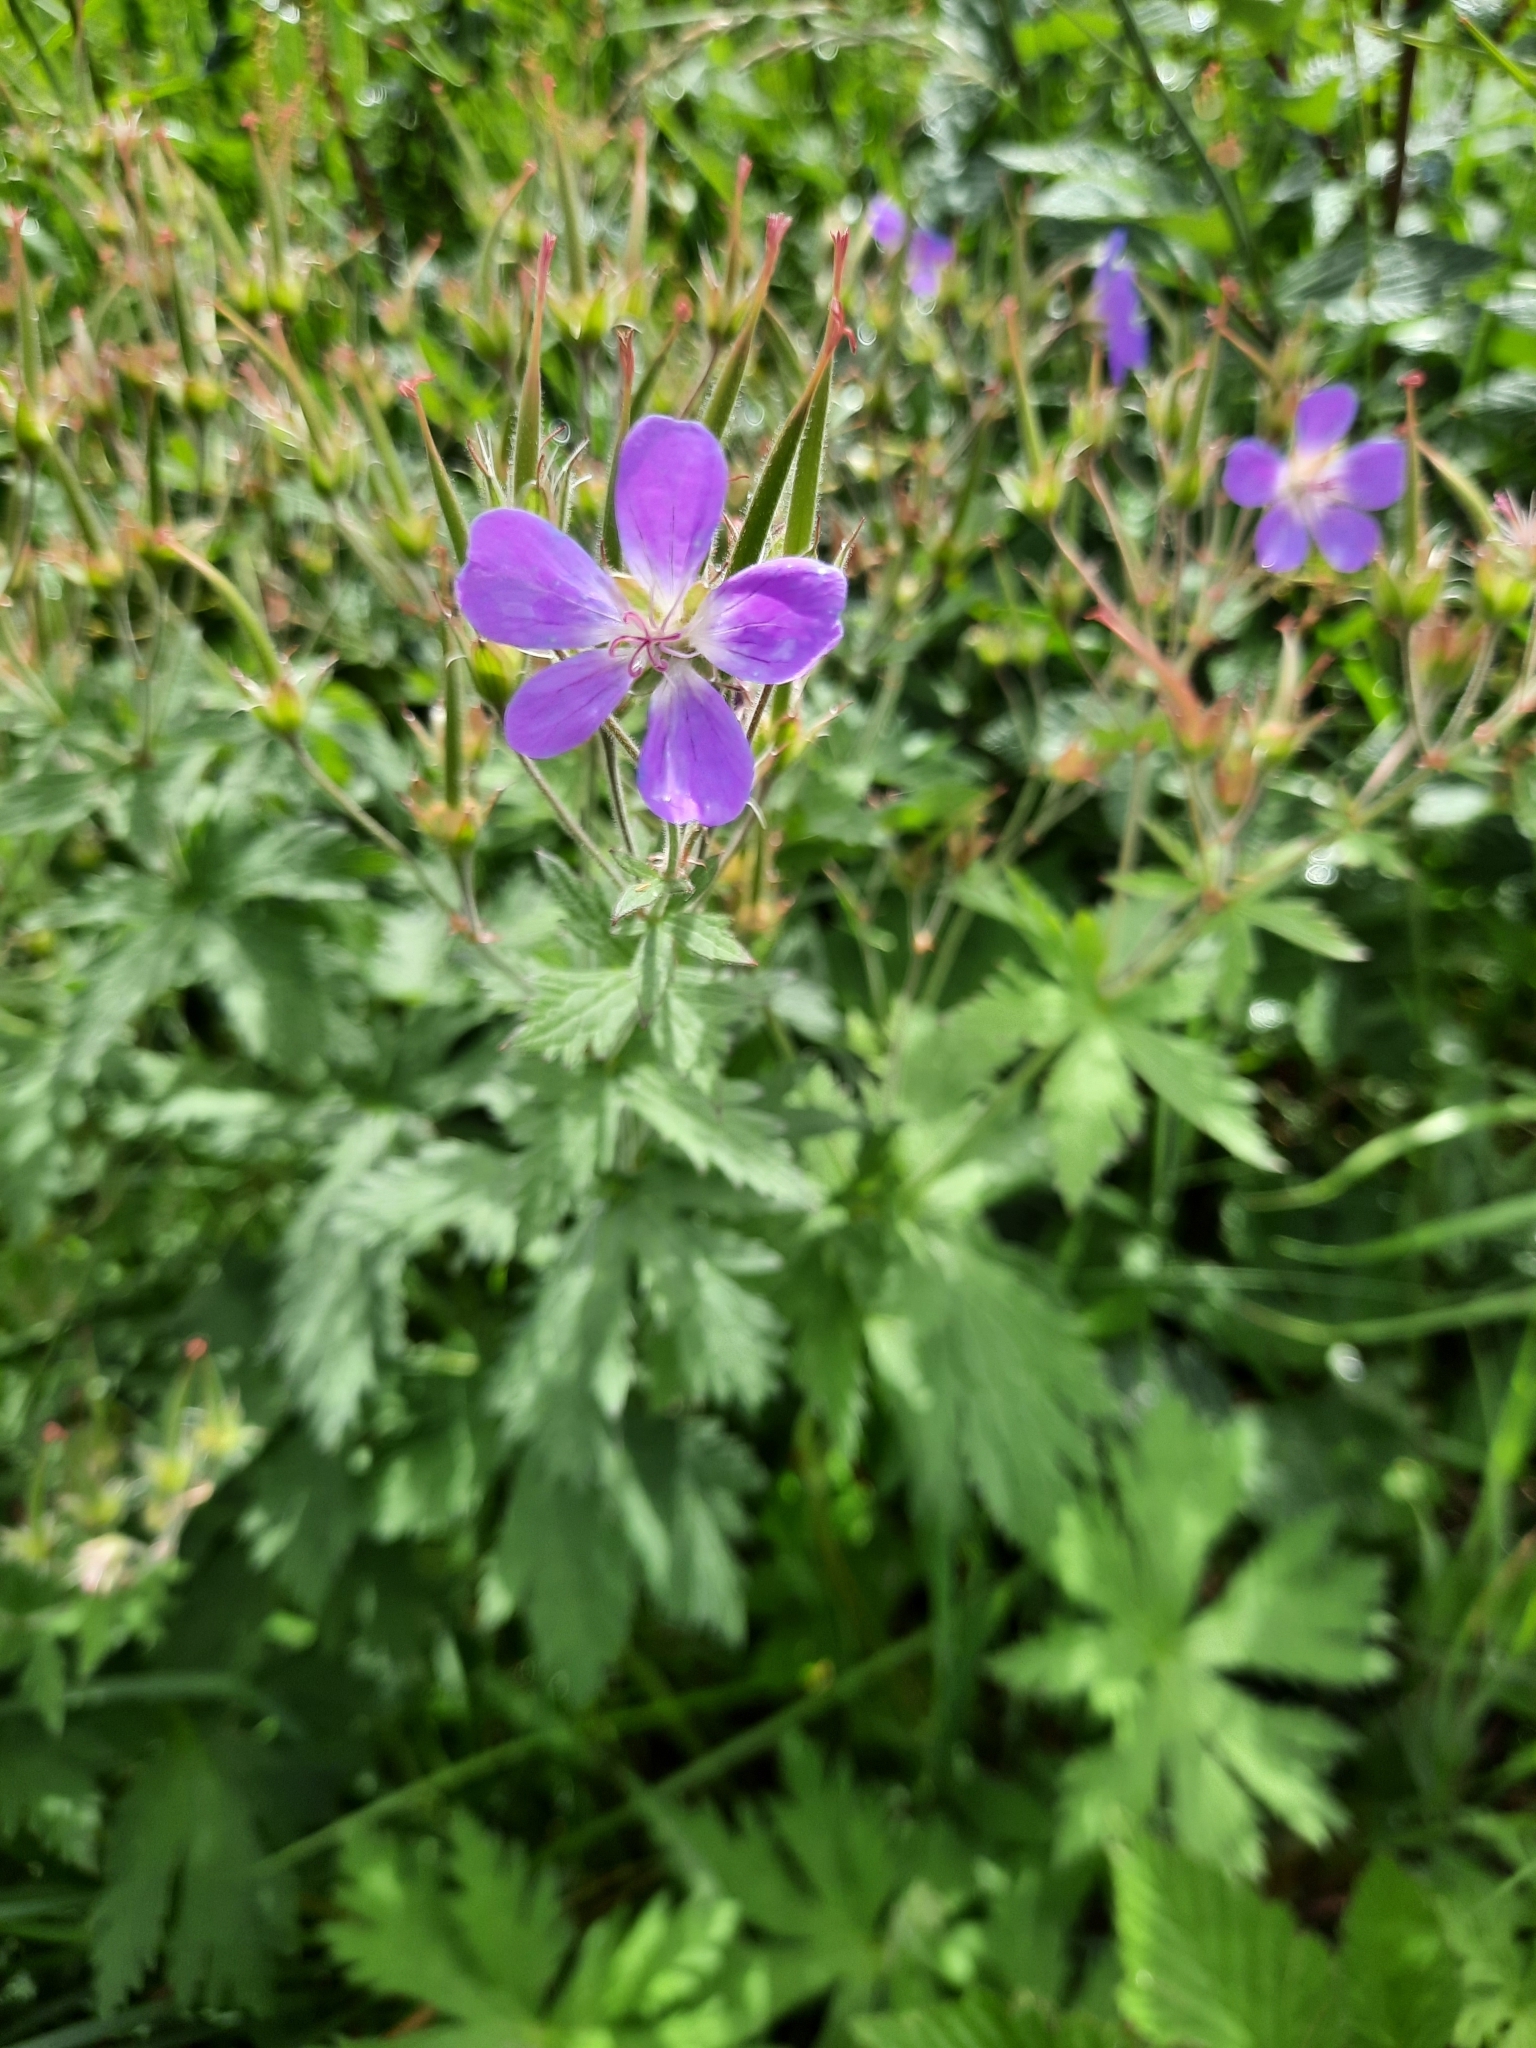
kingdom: Plantae
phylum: Tracheophyta
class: Magnoliopsida
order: Geraniales
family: Geraniaceae
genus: Geranium
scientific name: Geranium sylvaticum
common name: Wood crane's-bill
